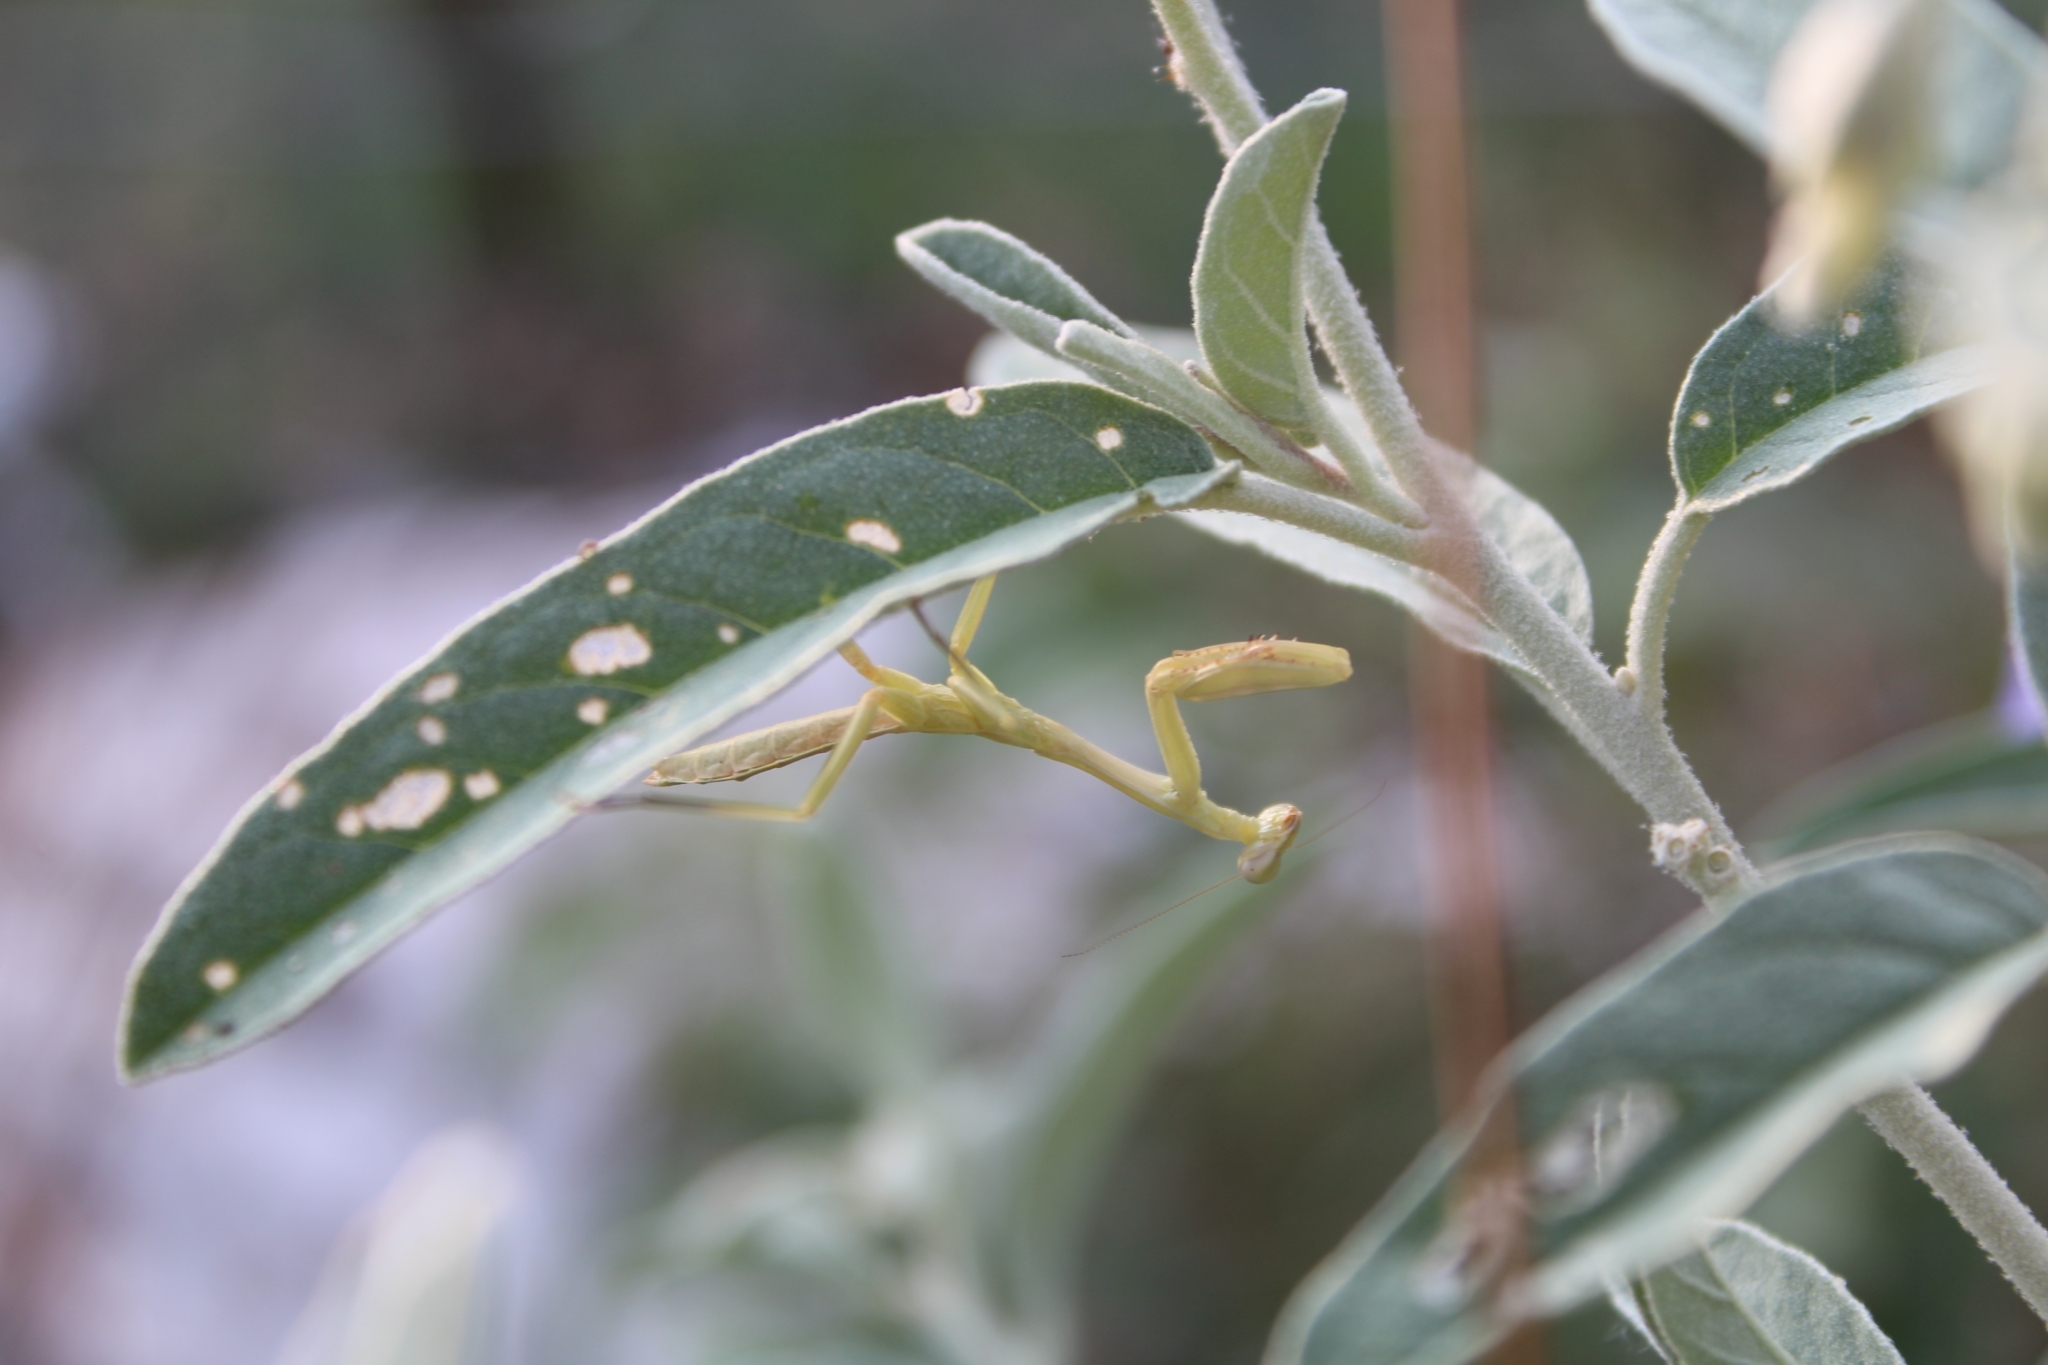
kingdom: Animalia
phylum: Arthropoda
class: Insecta
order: Mantodea
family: Mantidae
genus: Stagmomantis
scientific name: Stagmomantis carolina
